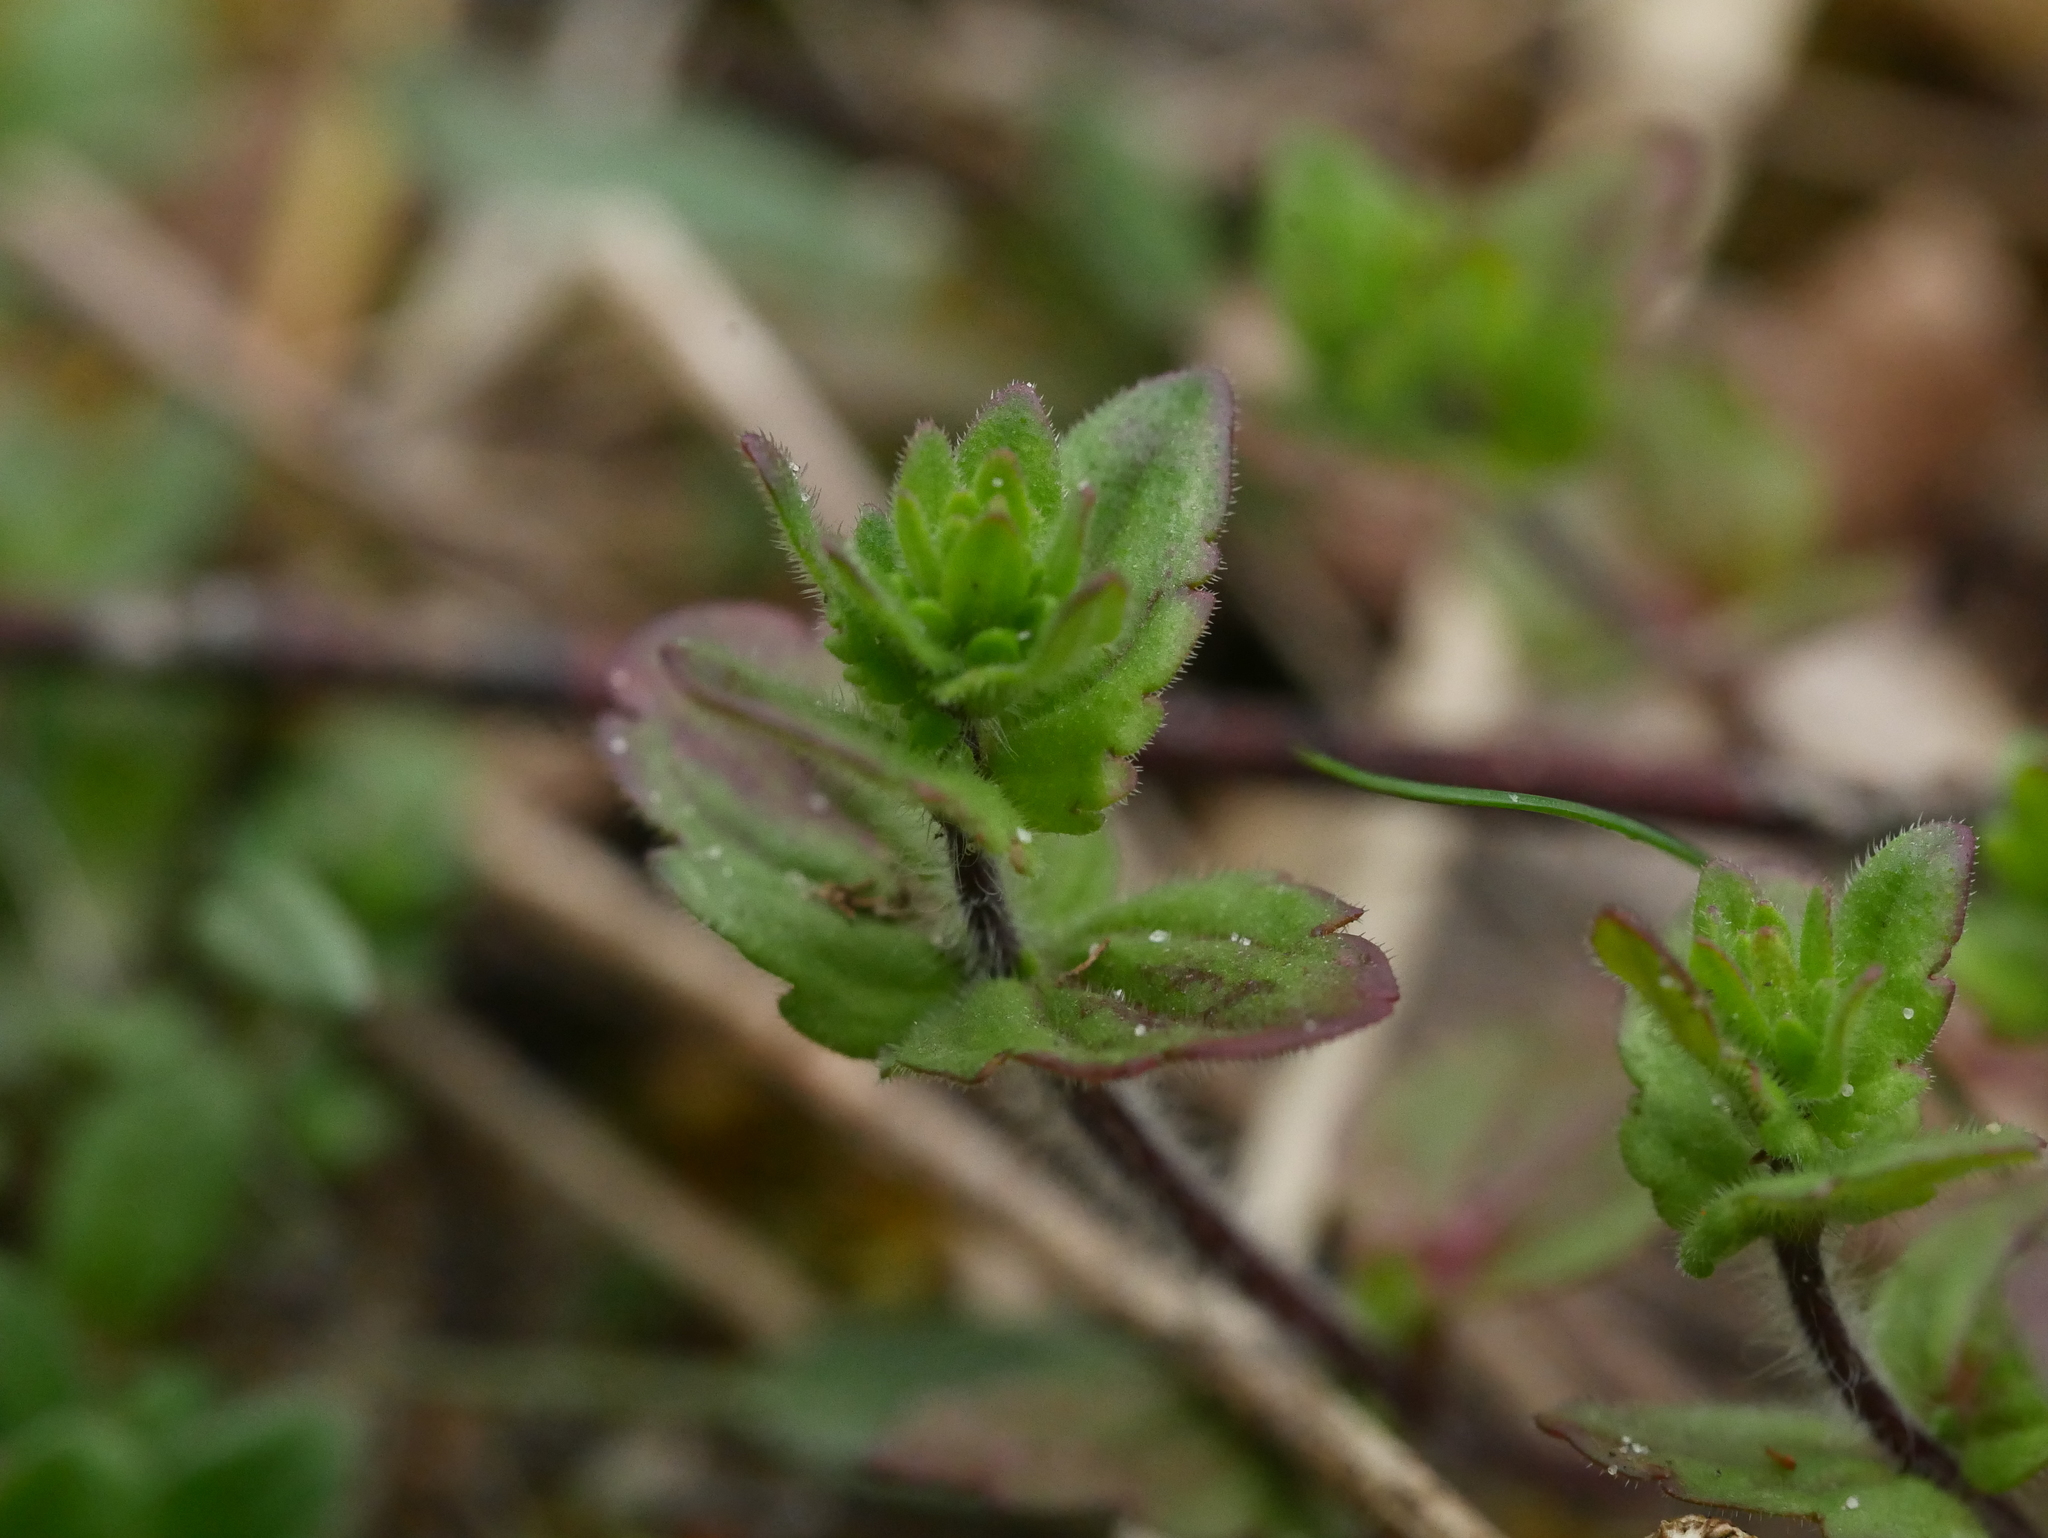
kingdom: Plantae
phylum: Tracheophyta
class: Magnoliopsida
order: Lamiales
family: Plantaginaceae
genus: Veronica
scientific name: Veronica arvensis
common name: Corn speedwell
